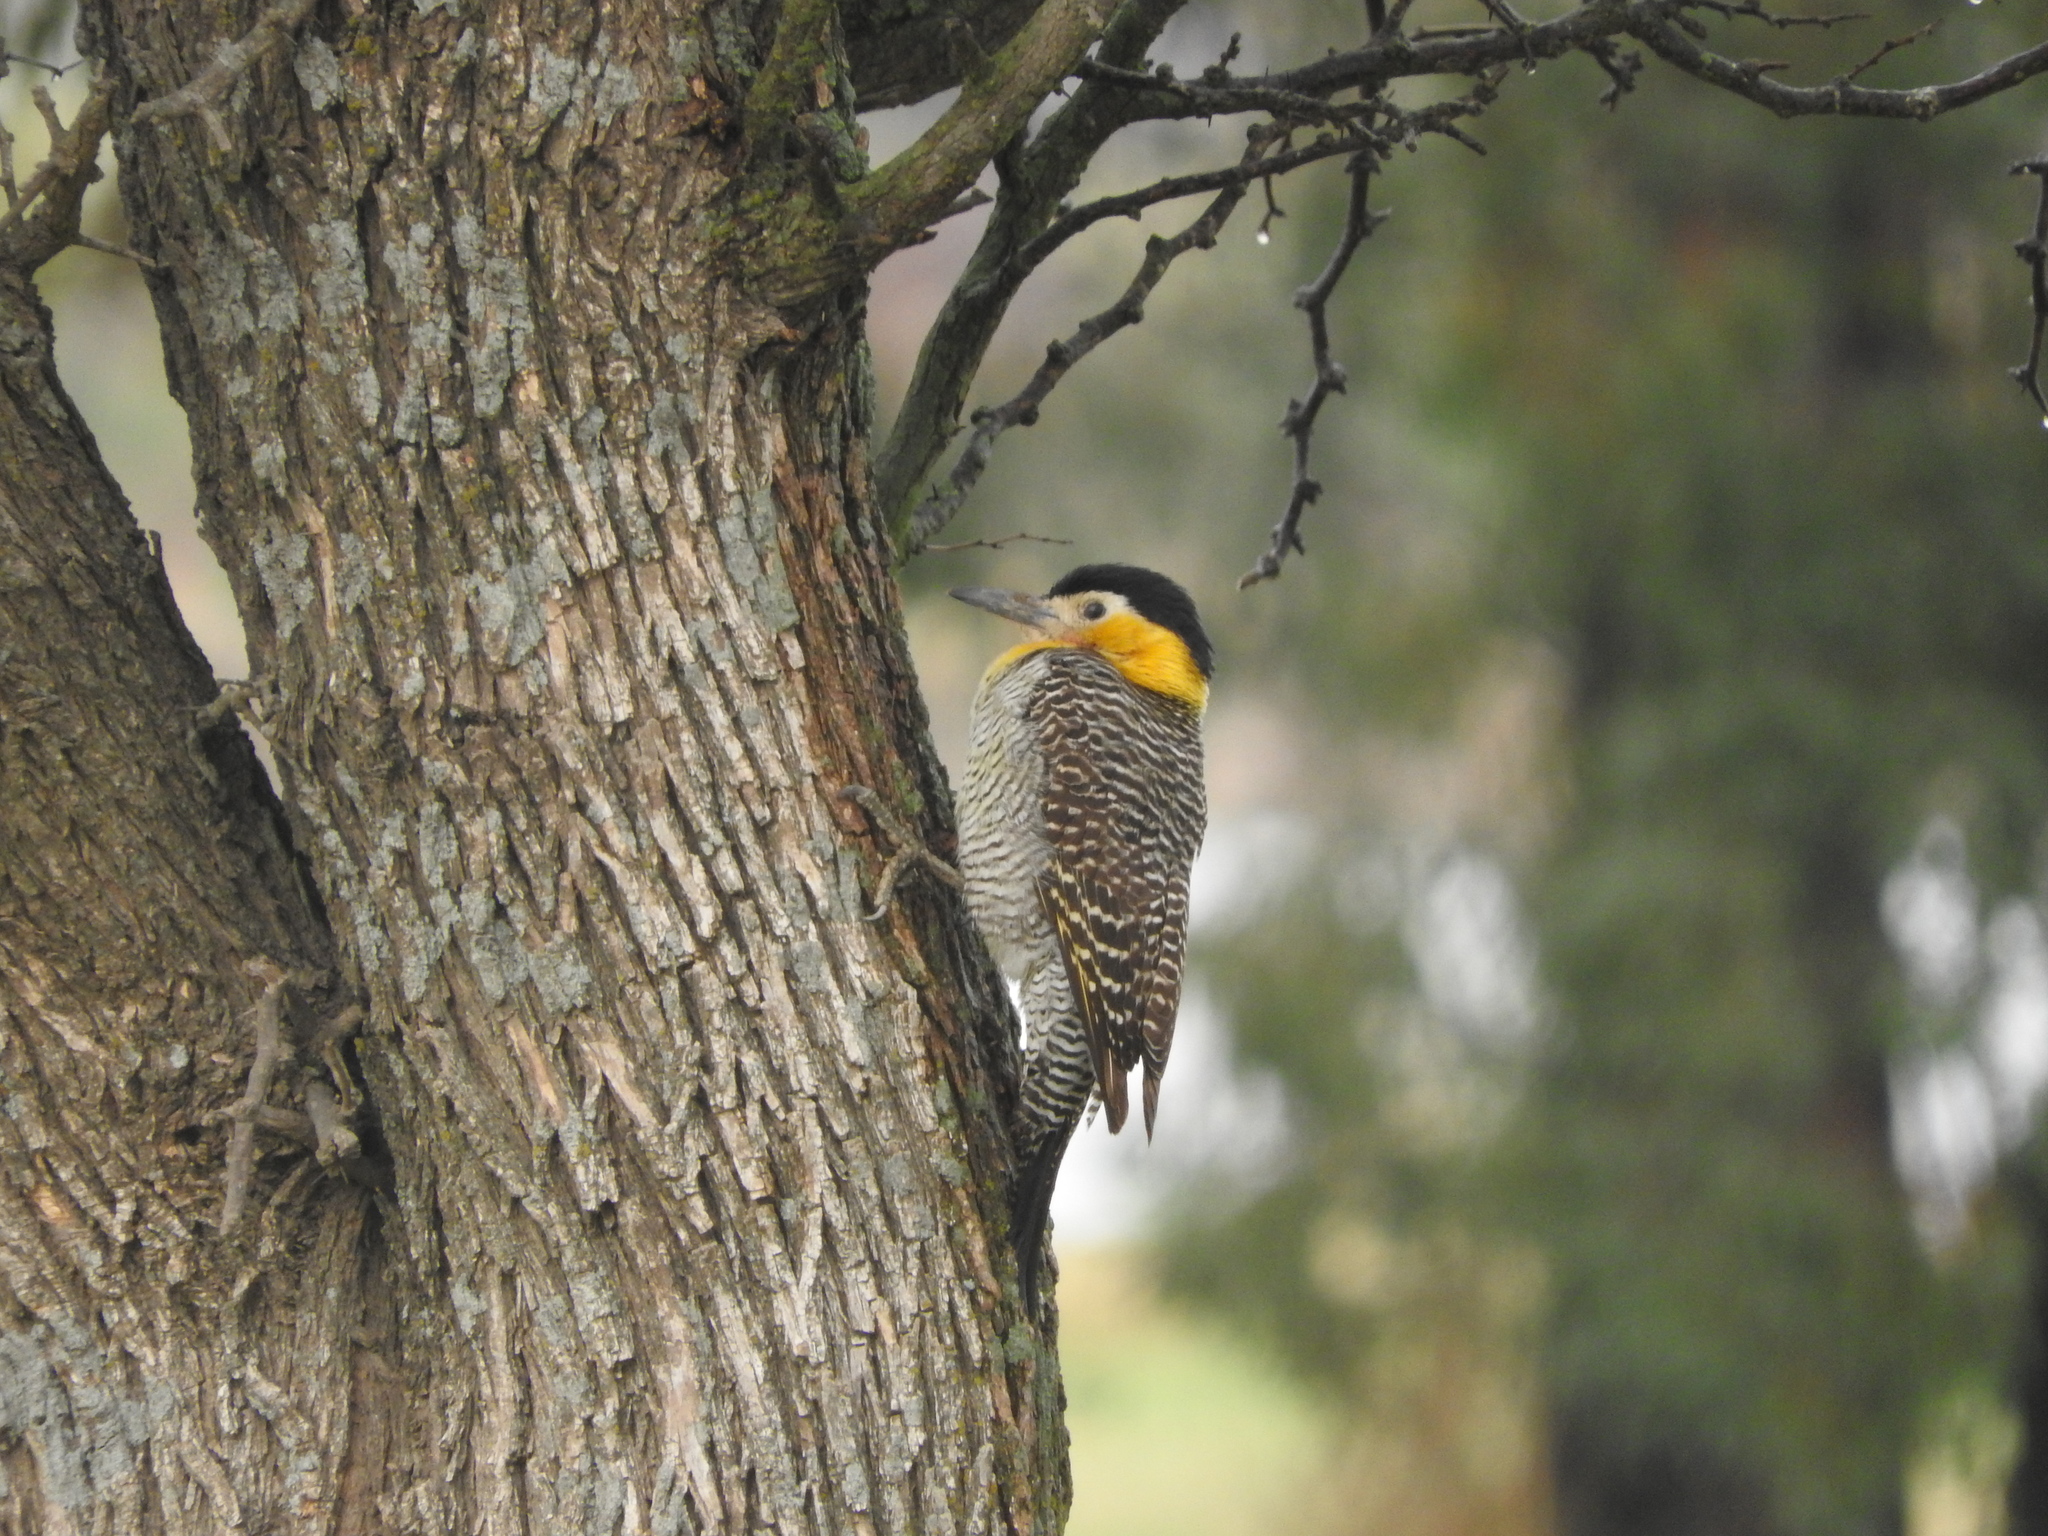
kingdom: Animalia
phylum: Chordata
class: Aves
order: Piciformes
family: Picidae
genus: Colaptes
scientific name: Colaptes campestris
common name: Campo flicker
